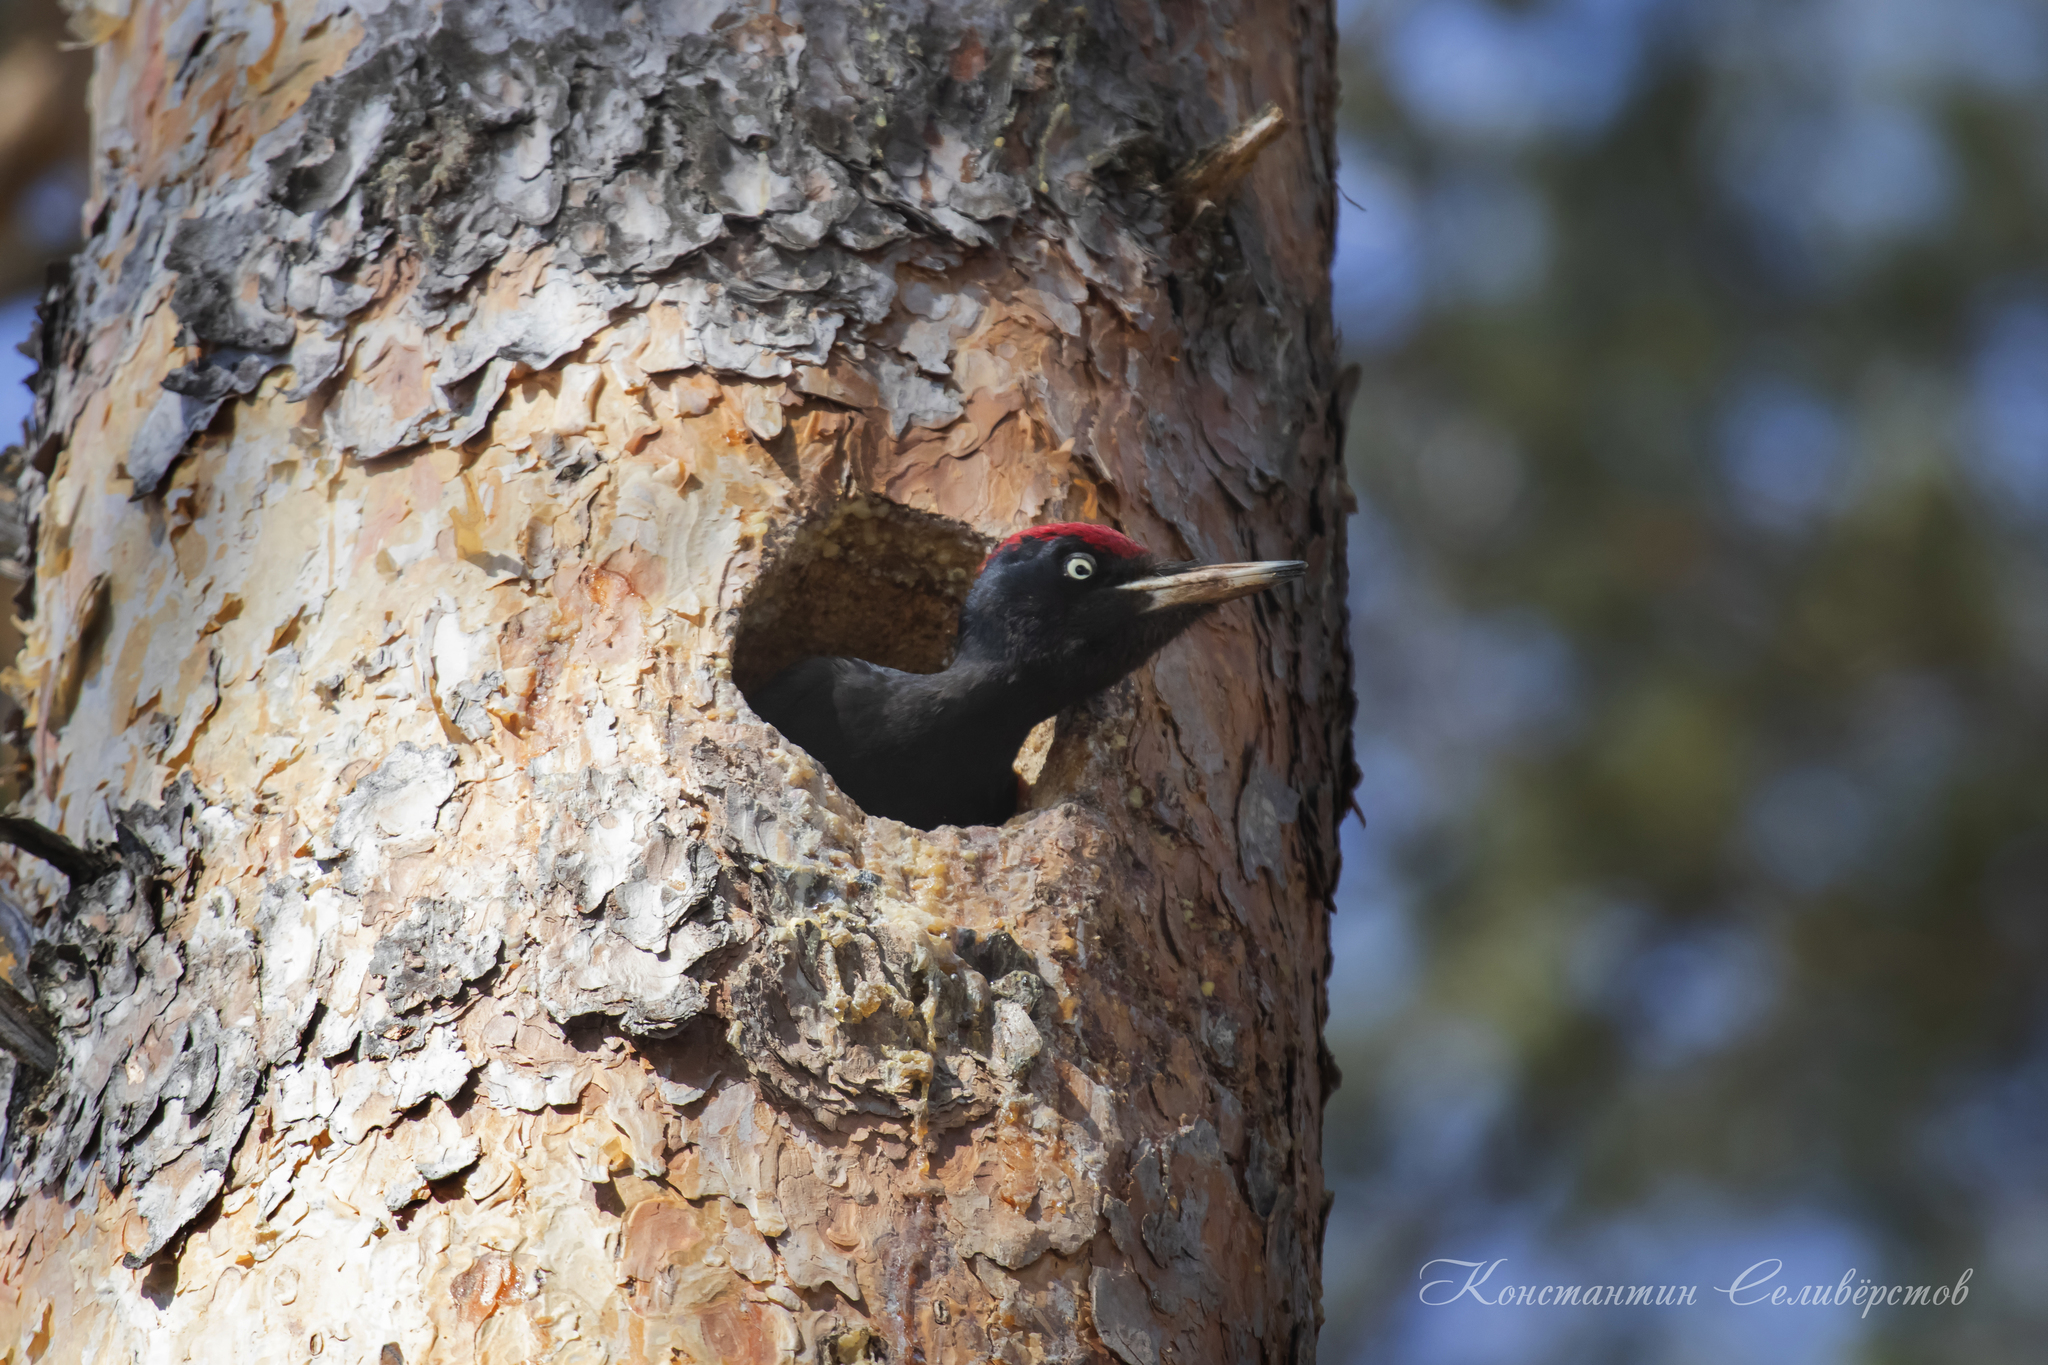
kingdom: Animalia
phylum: Chordata
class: Aves
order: Piciformes
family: Picidae
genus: Dryocopus
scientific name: Dryocopus martius
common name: Black woodpecker
